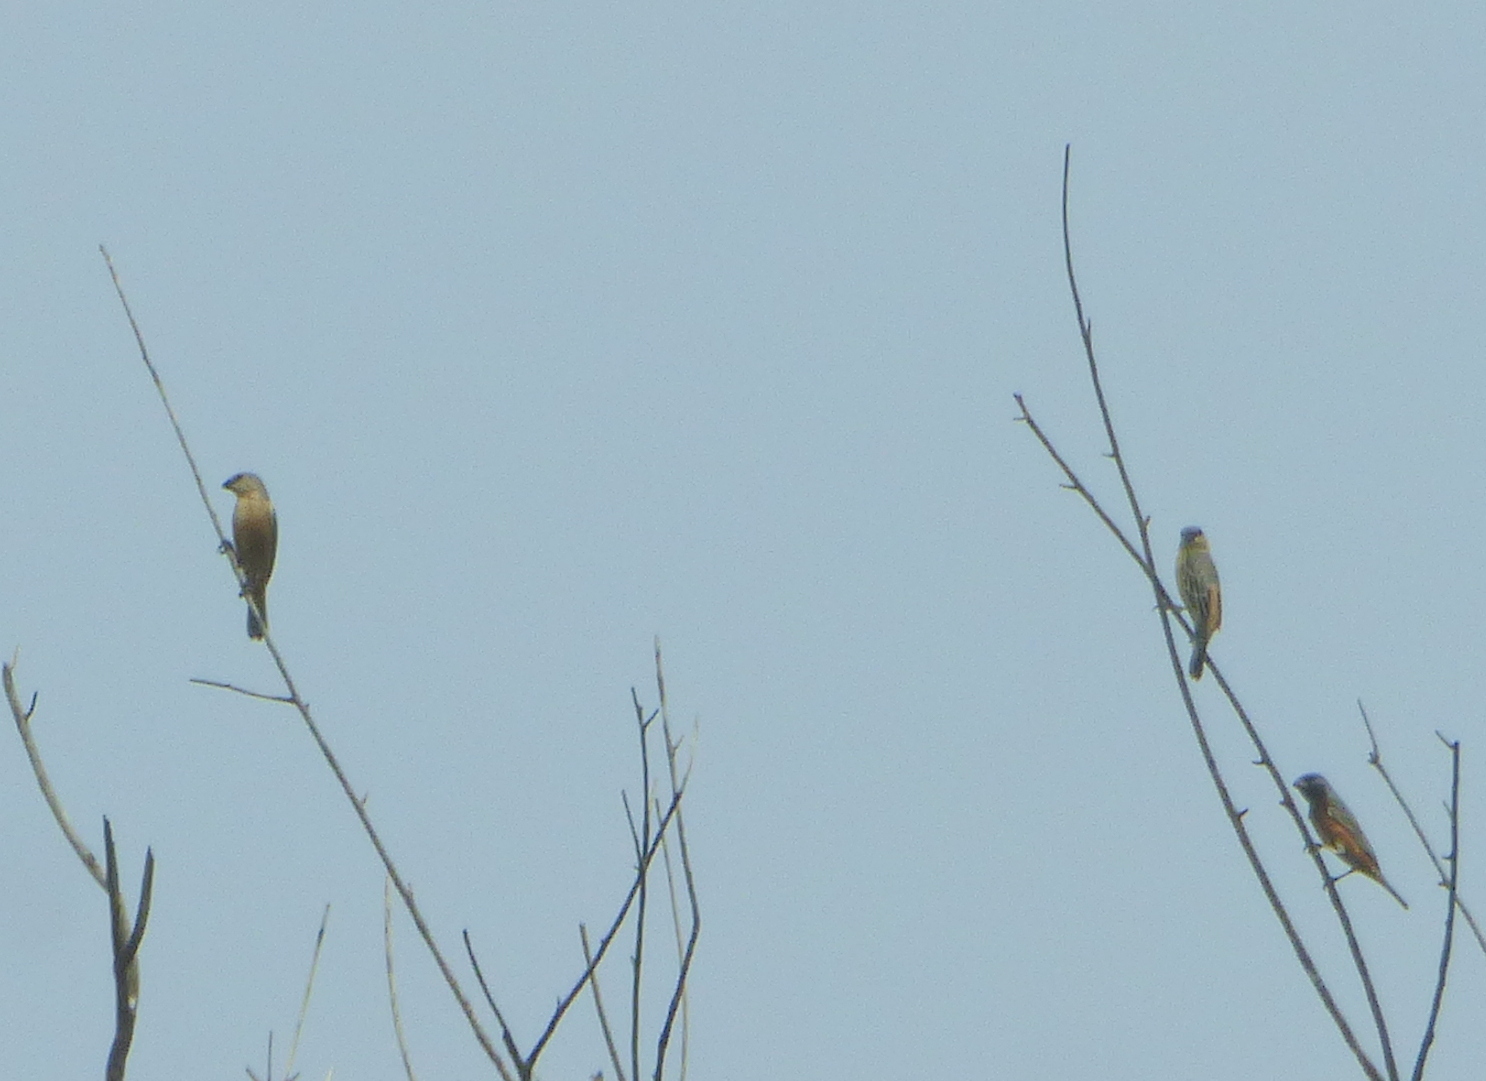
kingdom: Animalia
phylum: Chordata
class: Aves
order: Passeriformes
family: Thraupidae
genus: Sporophila
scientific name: Sporophila ruficollis
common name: Dark-throated seedeater
